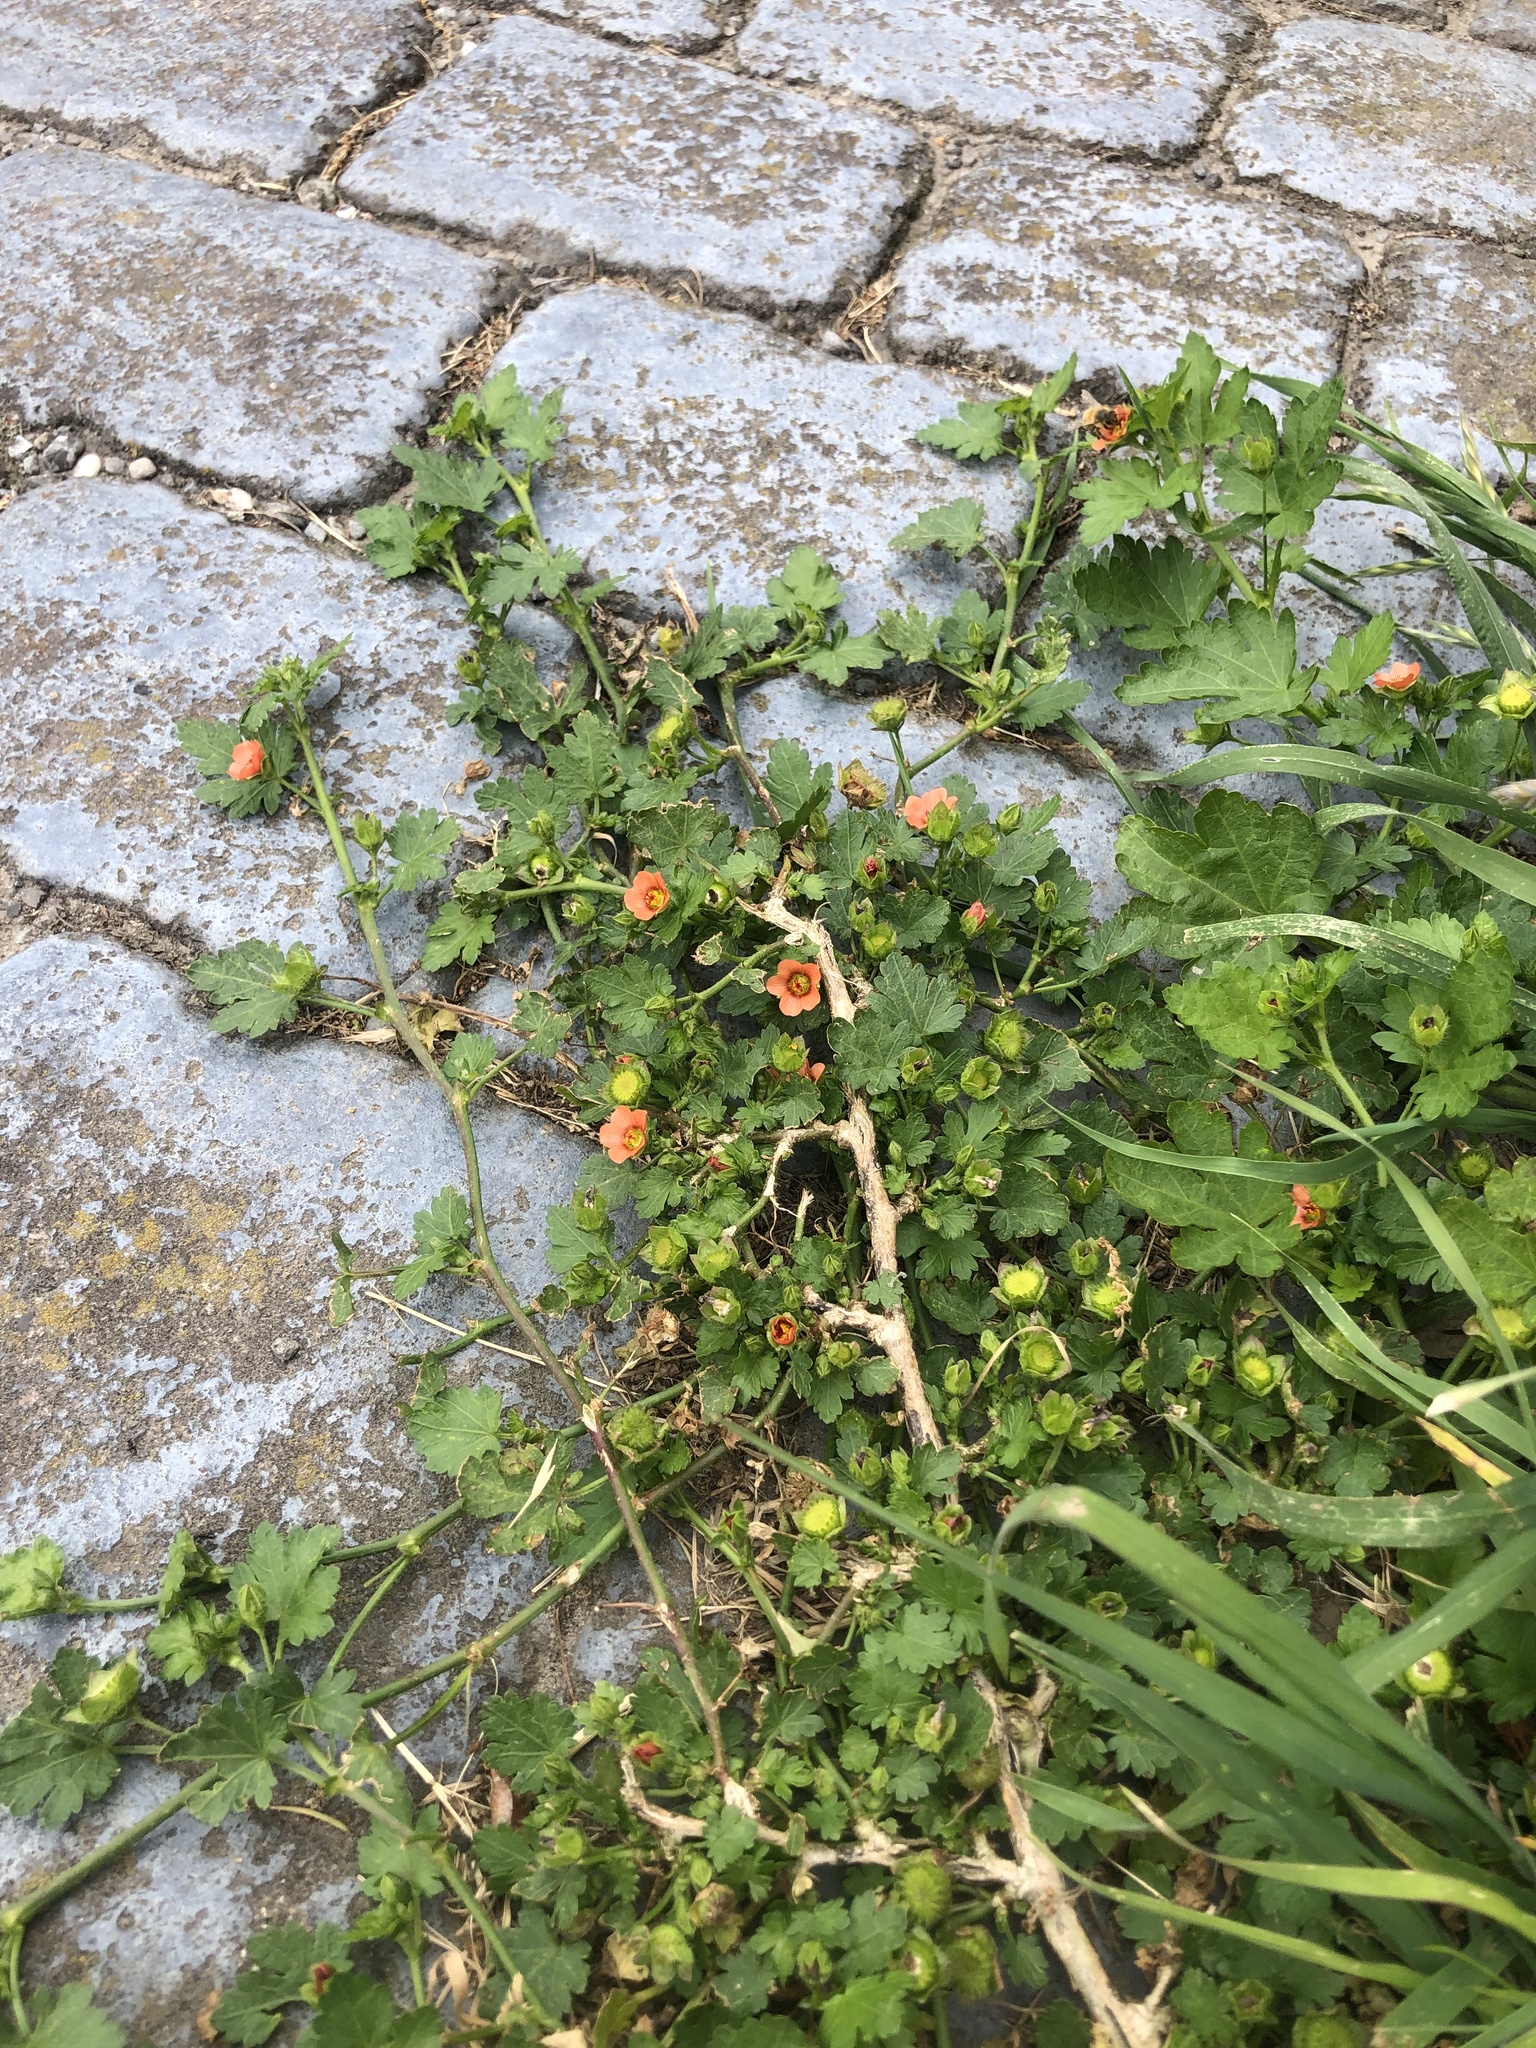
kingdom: Plantae
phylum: Tracheophyta
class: Magnoliopsida
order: Malvales
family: Malvaceae
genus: Modiola
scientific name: Modiola caroliniana
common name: Carolina bristlemallow
